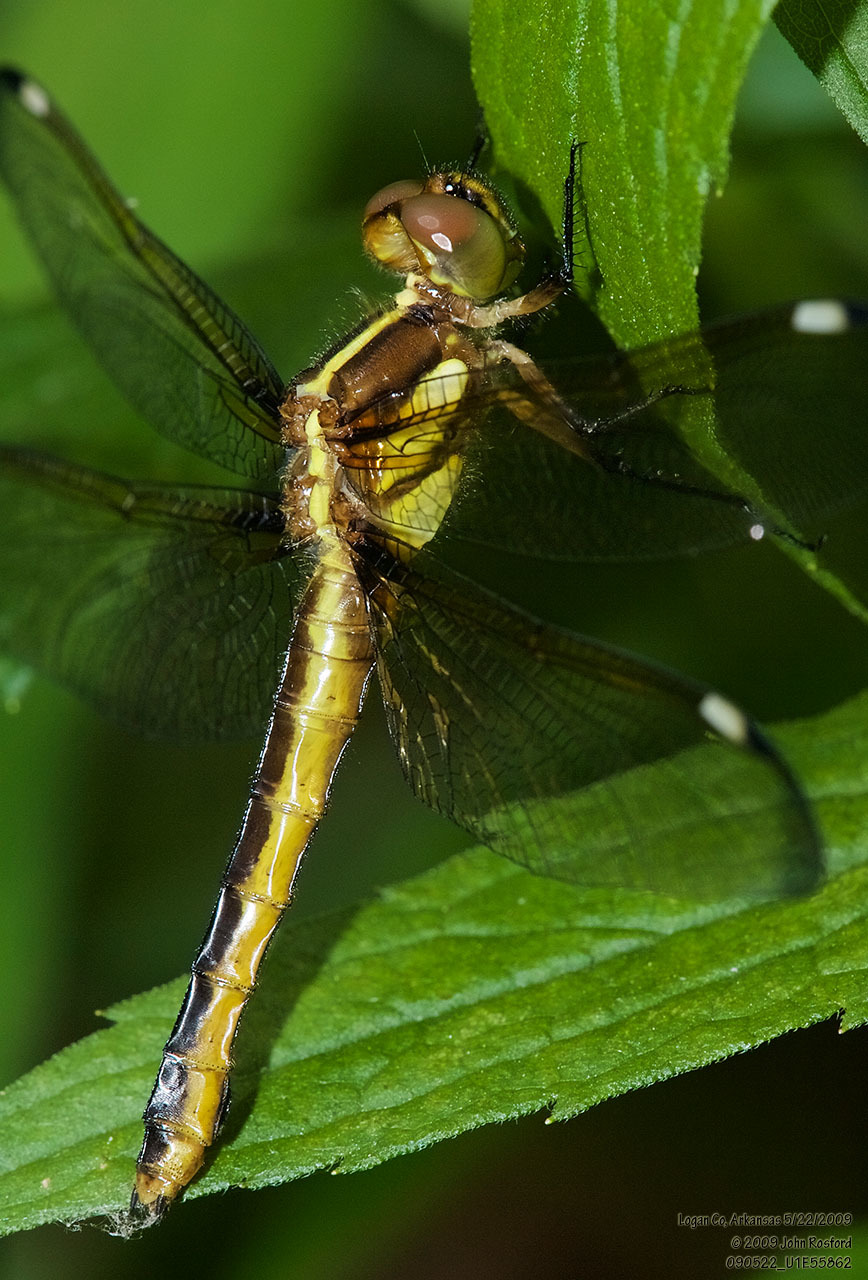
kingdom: Animalia
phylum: Arthropoda
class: Insecta
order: Odonata
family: Libellulidae
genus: Libellula
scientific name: Libellula cyanea
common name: Spangled skimmer
